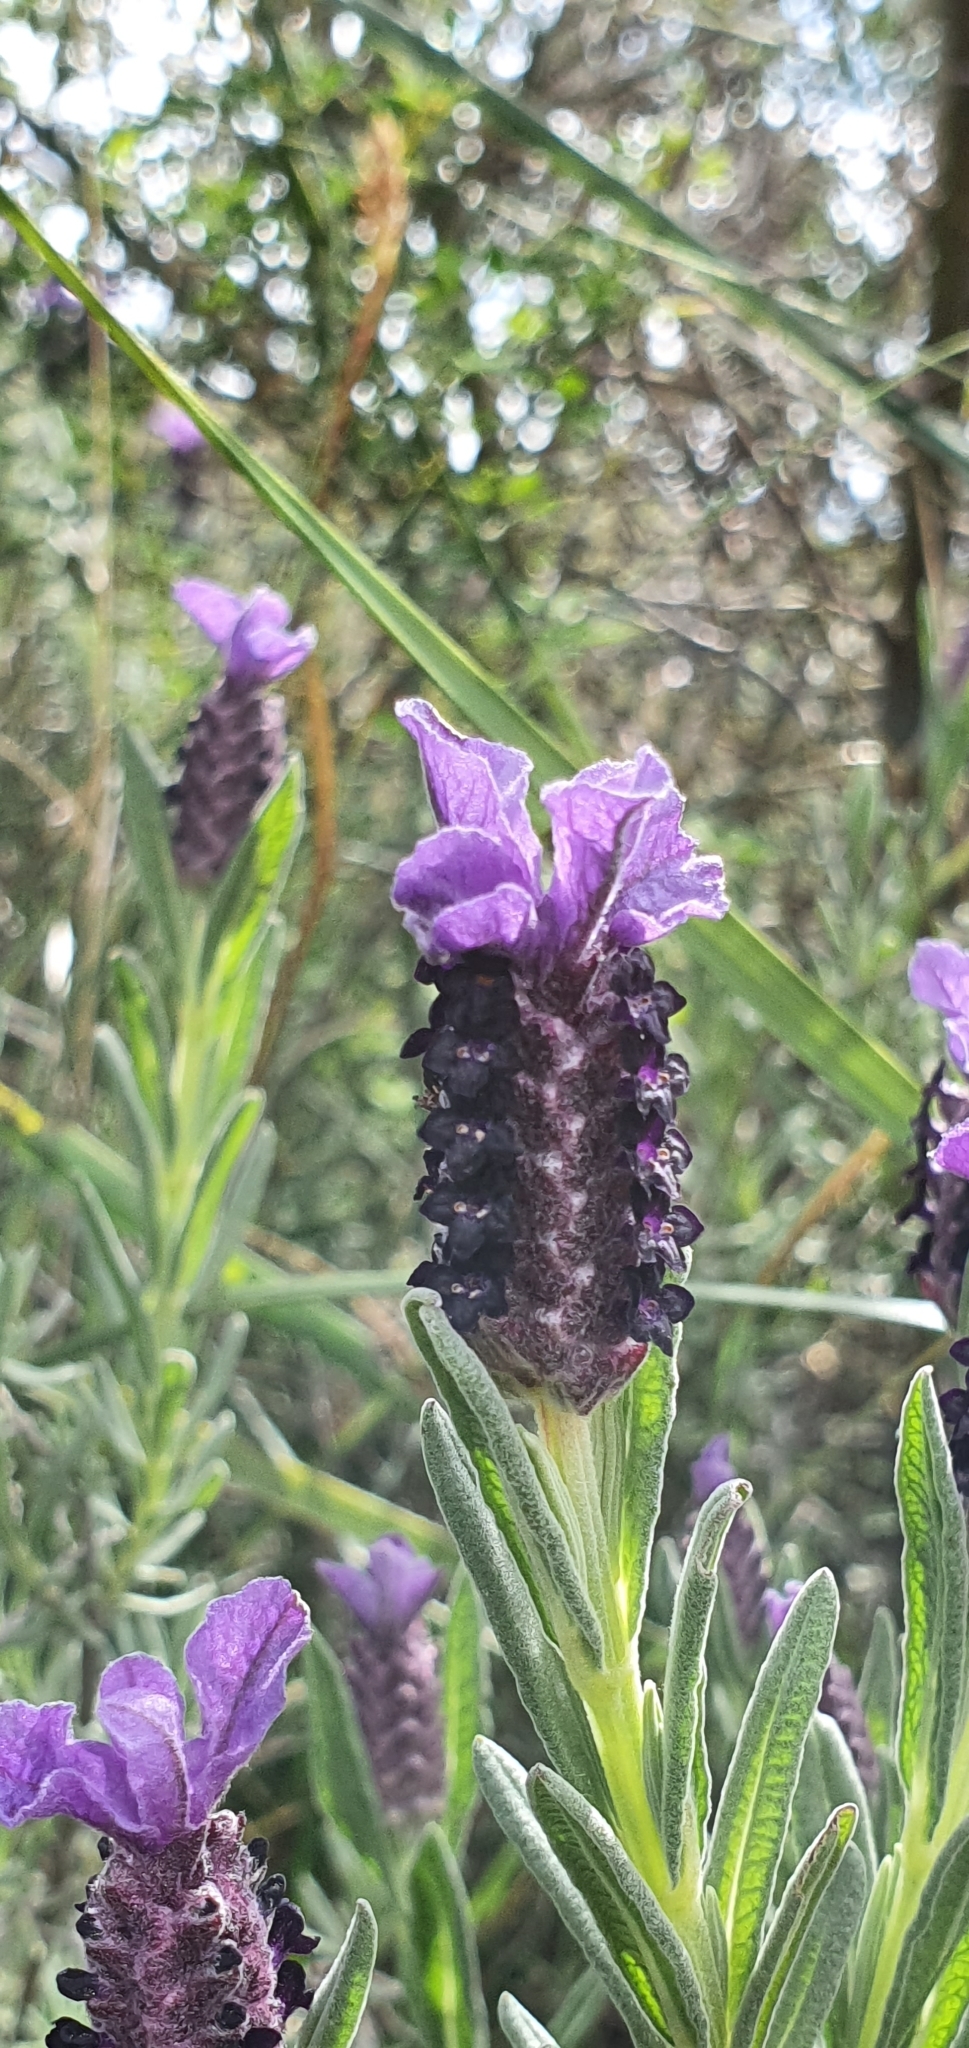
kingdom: Plantae
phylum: Tracheophyta
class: Magnoliopsida
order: Lamiales
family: Lamiaceae
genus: Lavandula
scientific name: Lavandula stoechas
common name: French lavender
